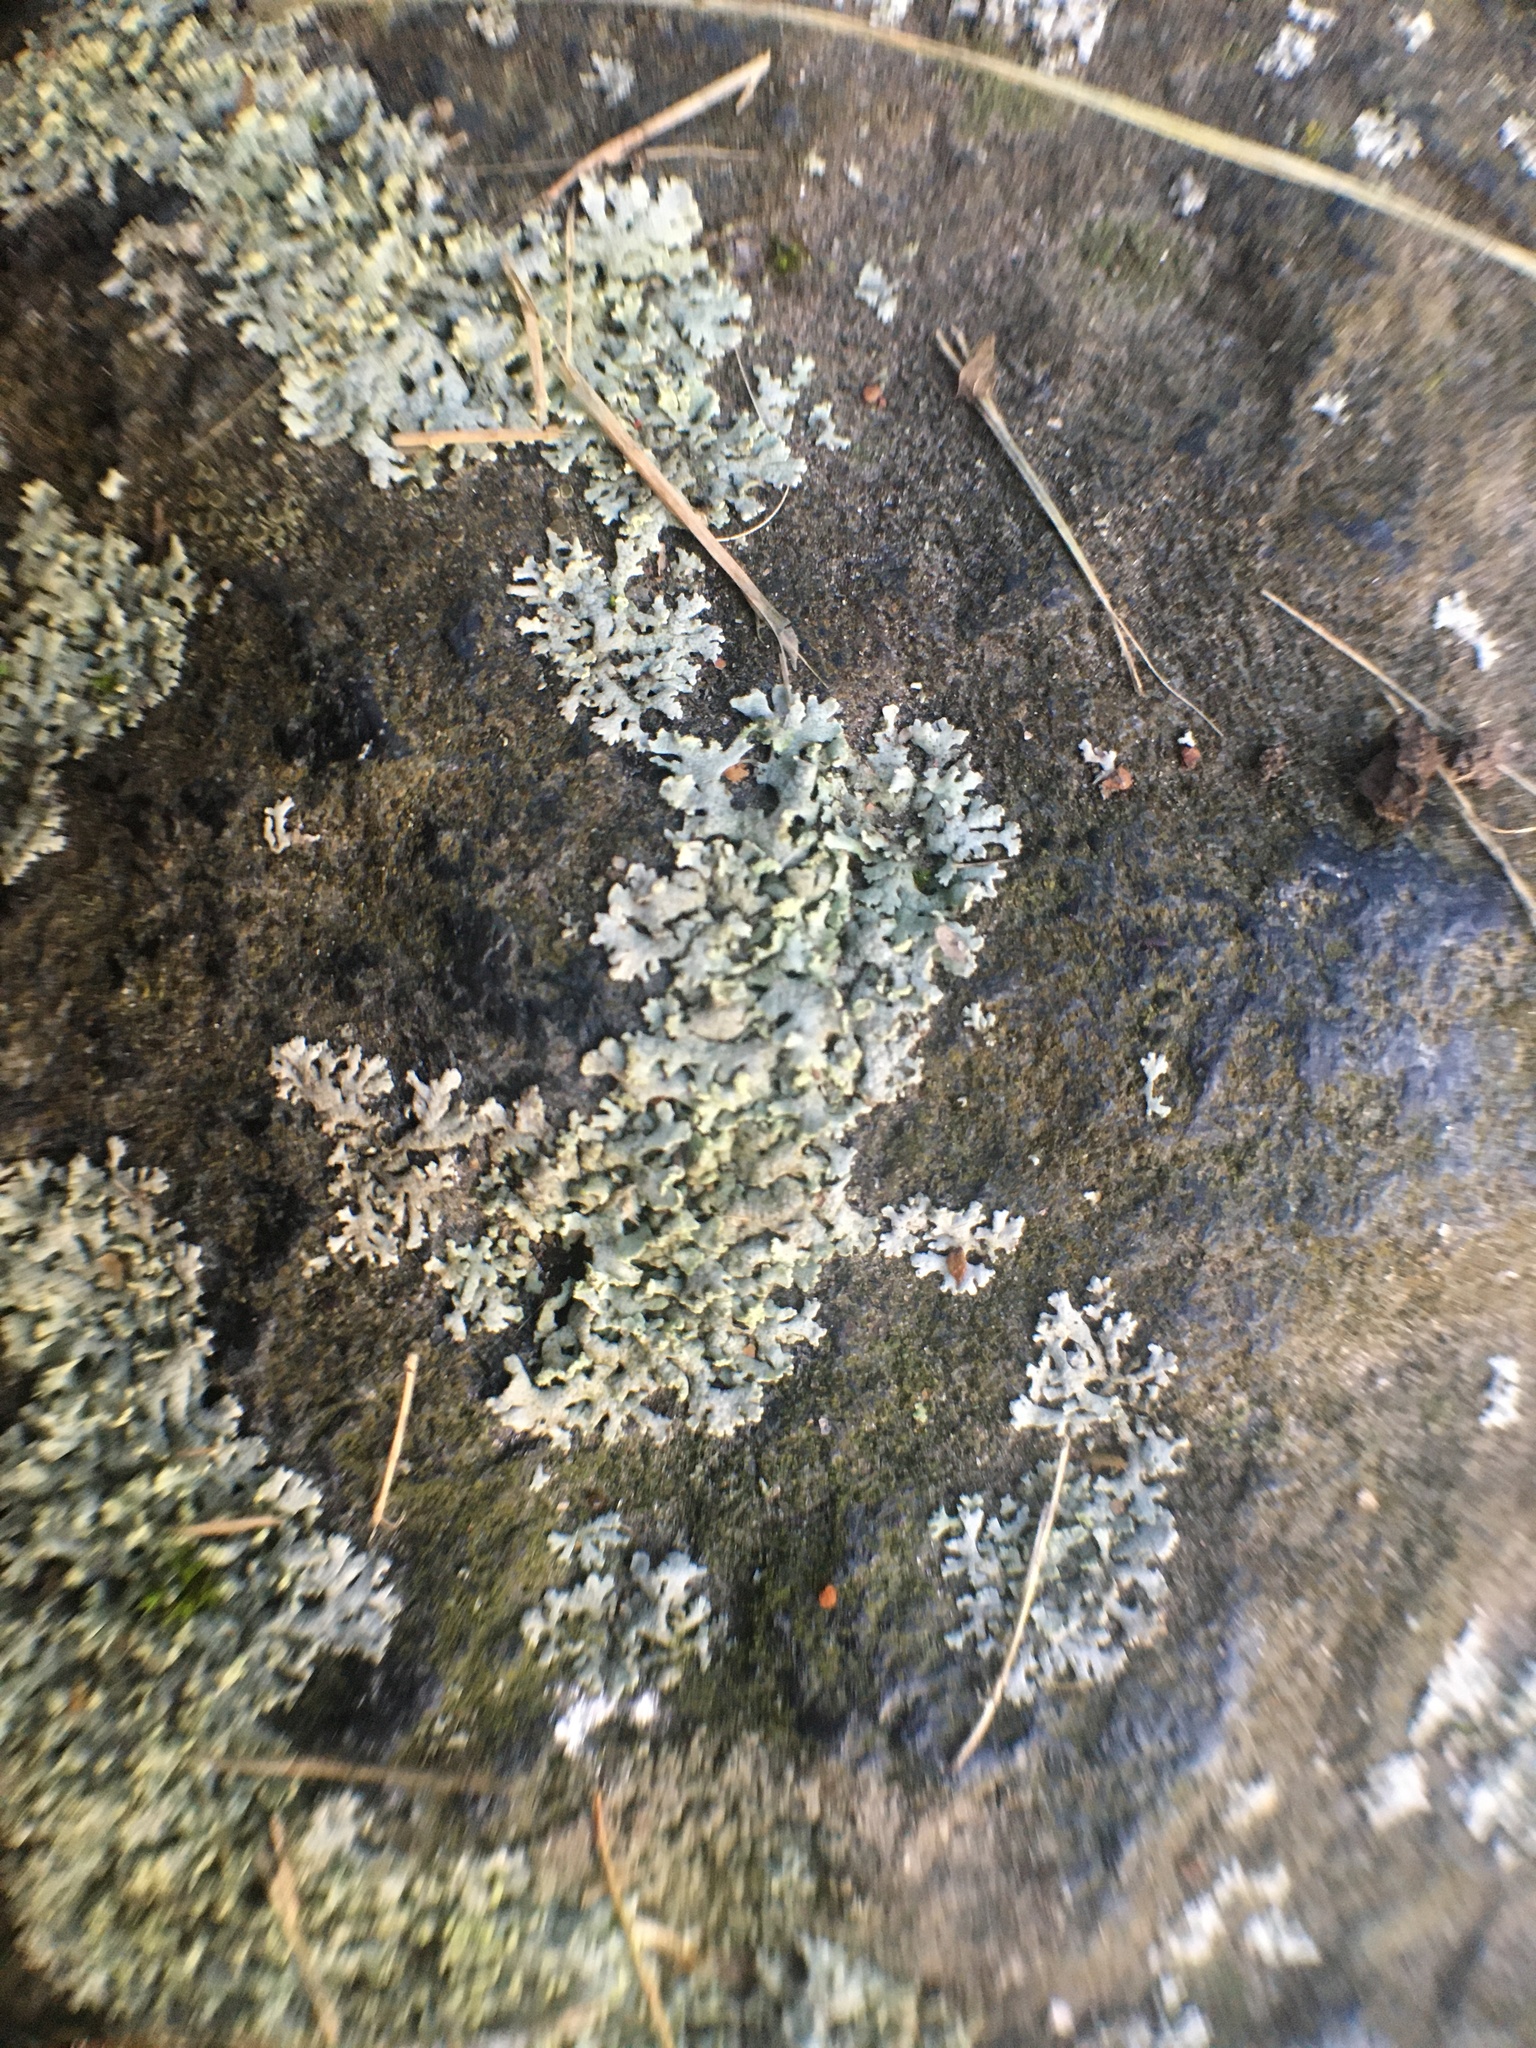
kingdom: Fungi
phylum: Ascomycota
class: Lecanoromycetes
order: Caliciales
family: Physciaceae
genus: Physcia
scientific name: Physcia dubia
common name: Powder-tipped rosette lichen
